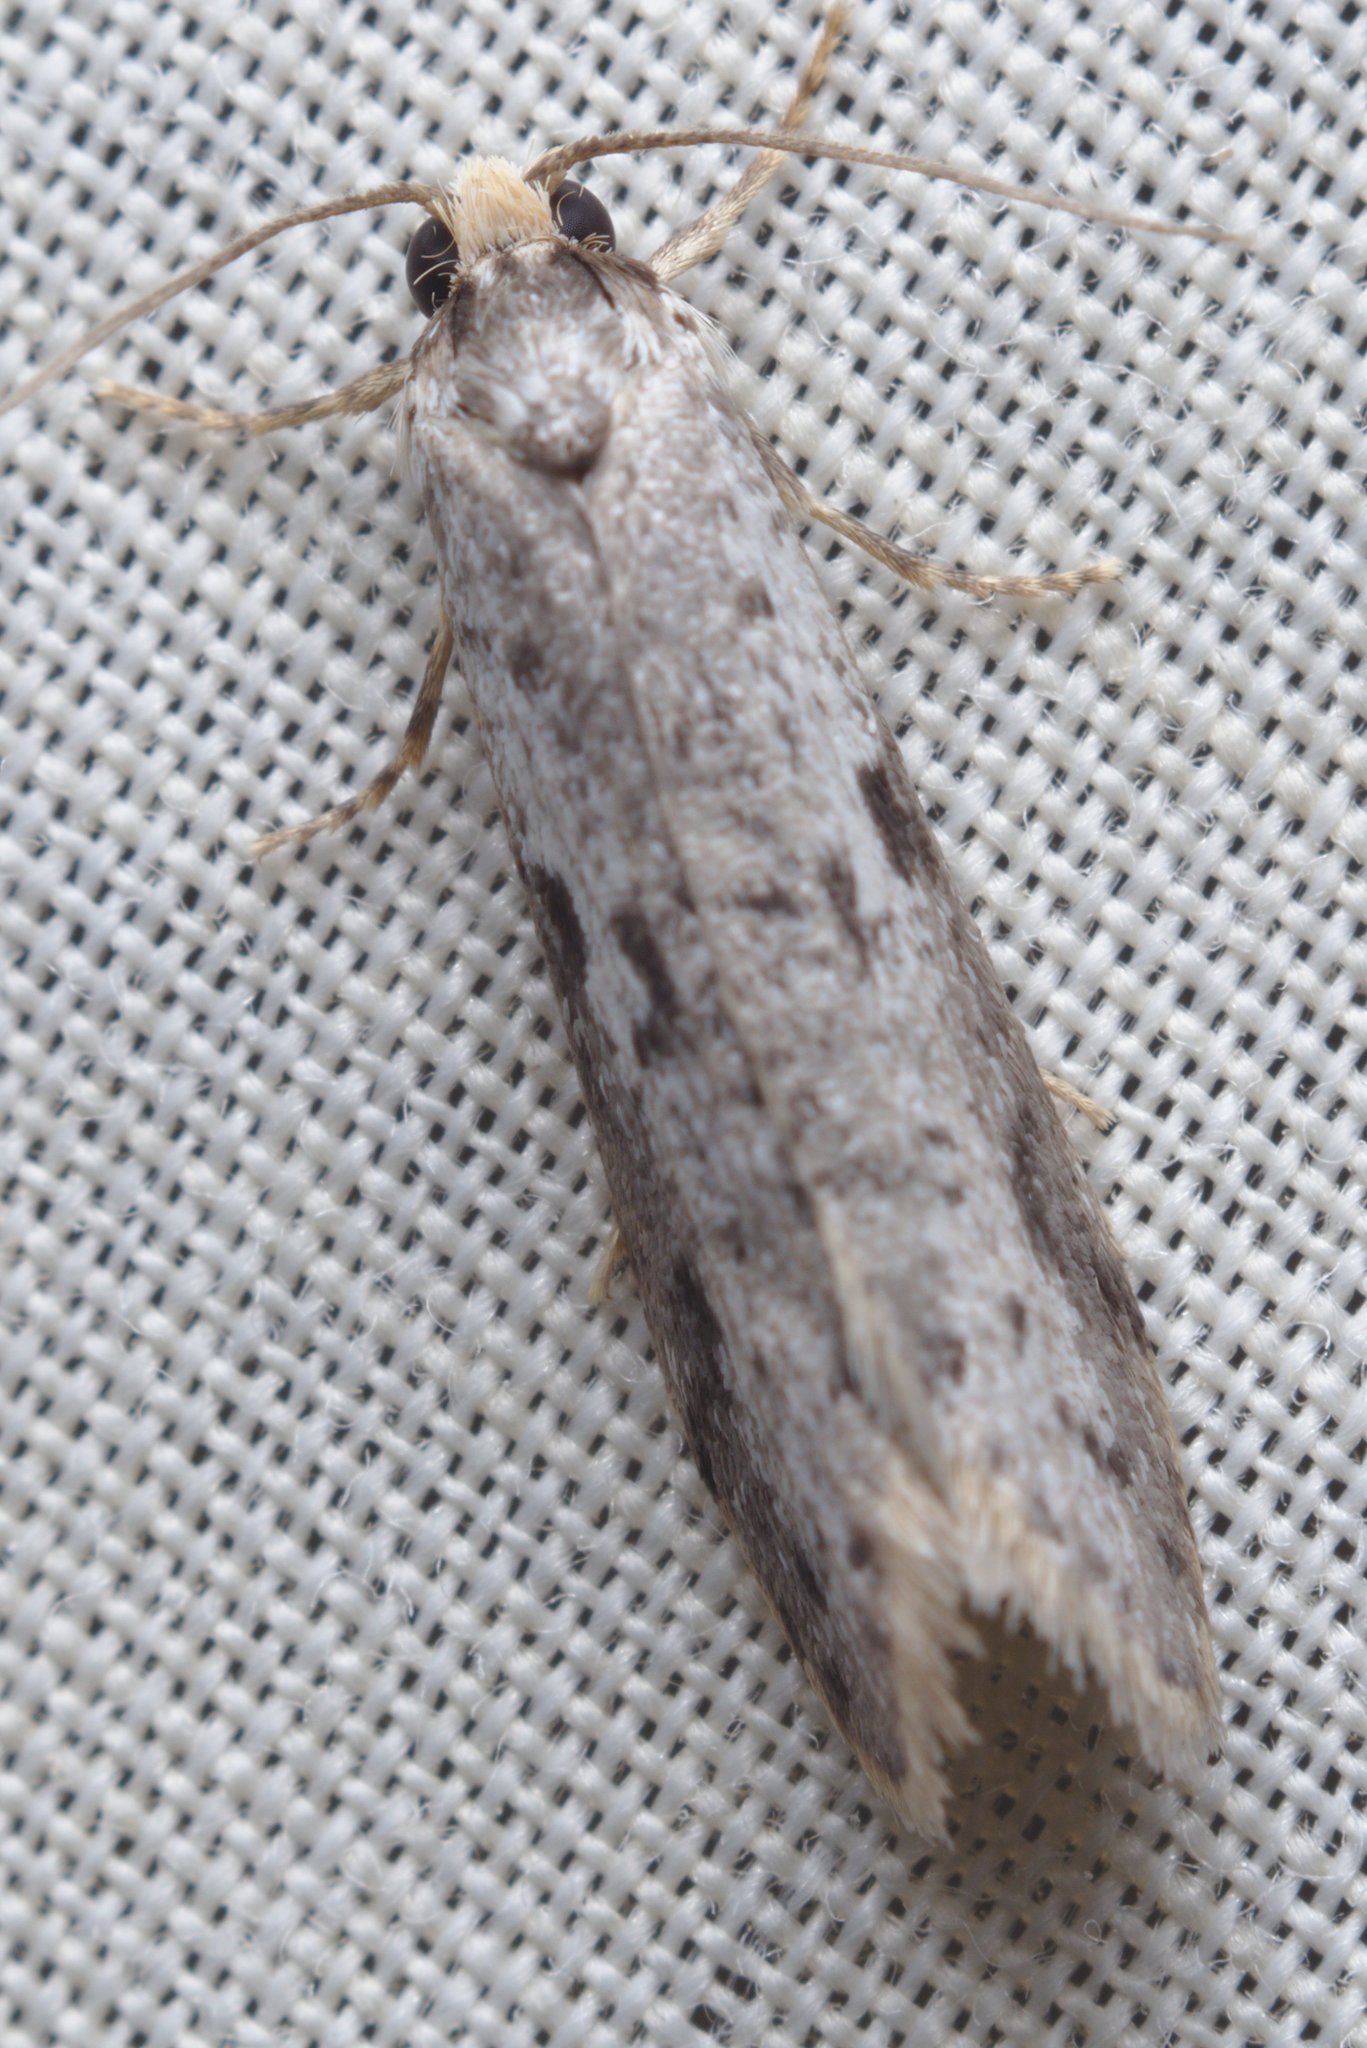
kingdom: Animalia
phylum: Arthropoda
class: Insecta
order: Lepidoptera
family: Psychidae
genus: Lepidoscia
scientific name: Lepidoscia protorna
